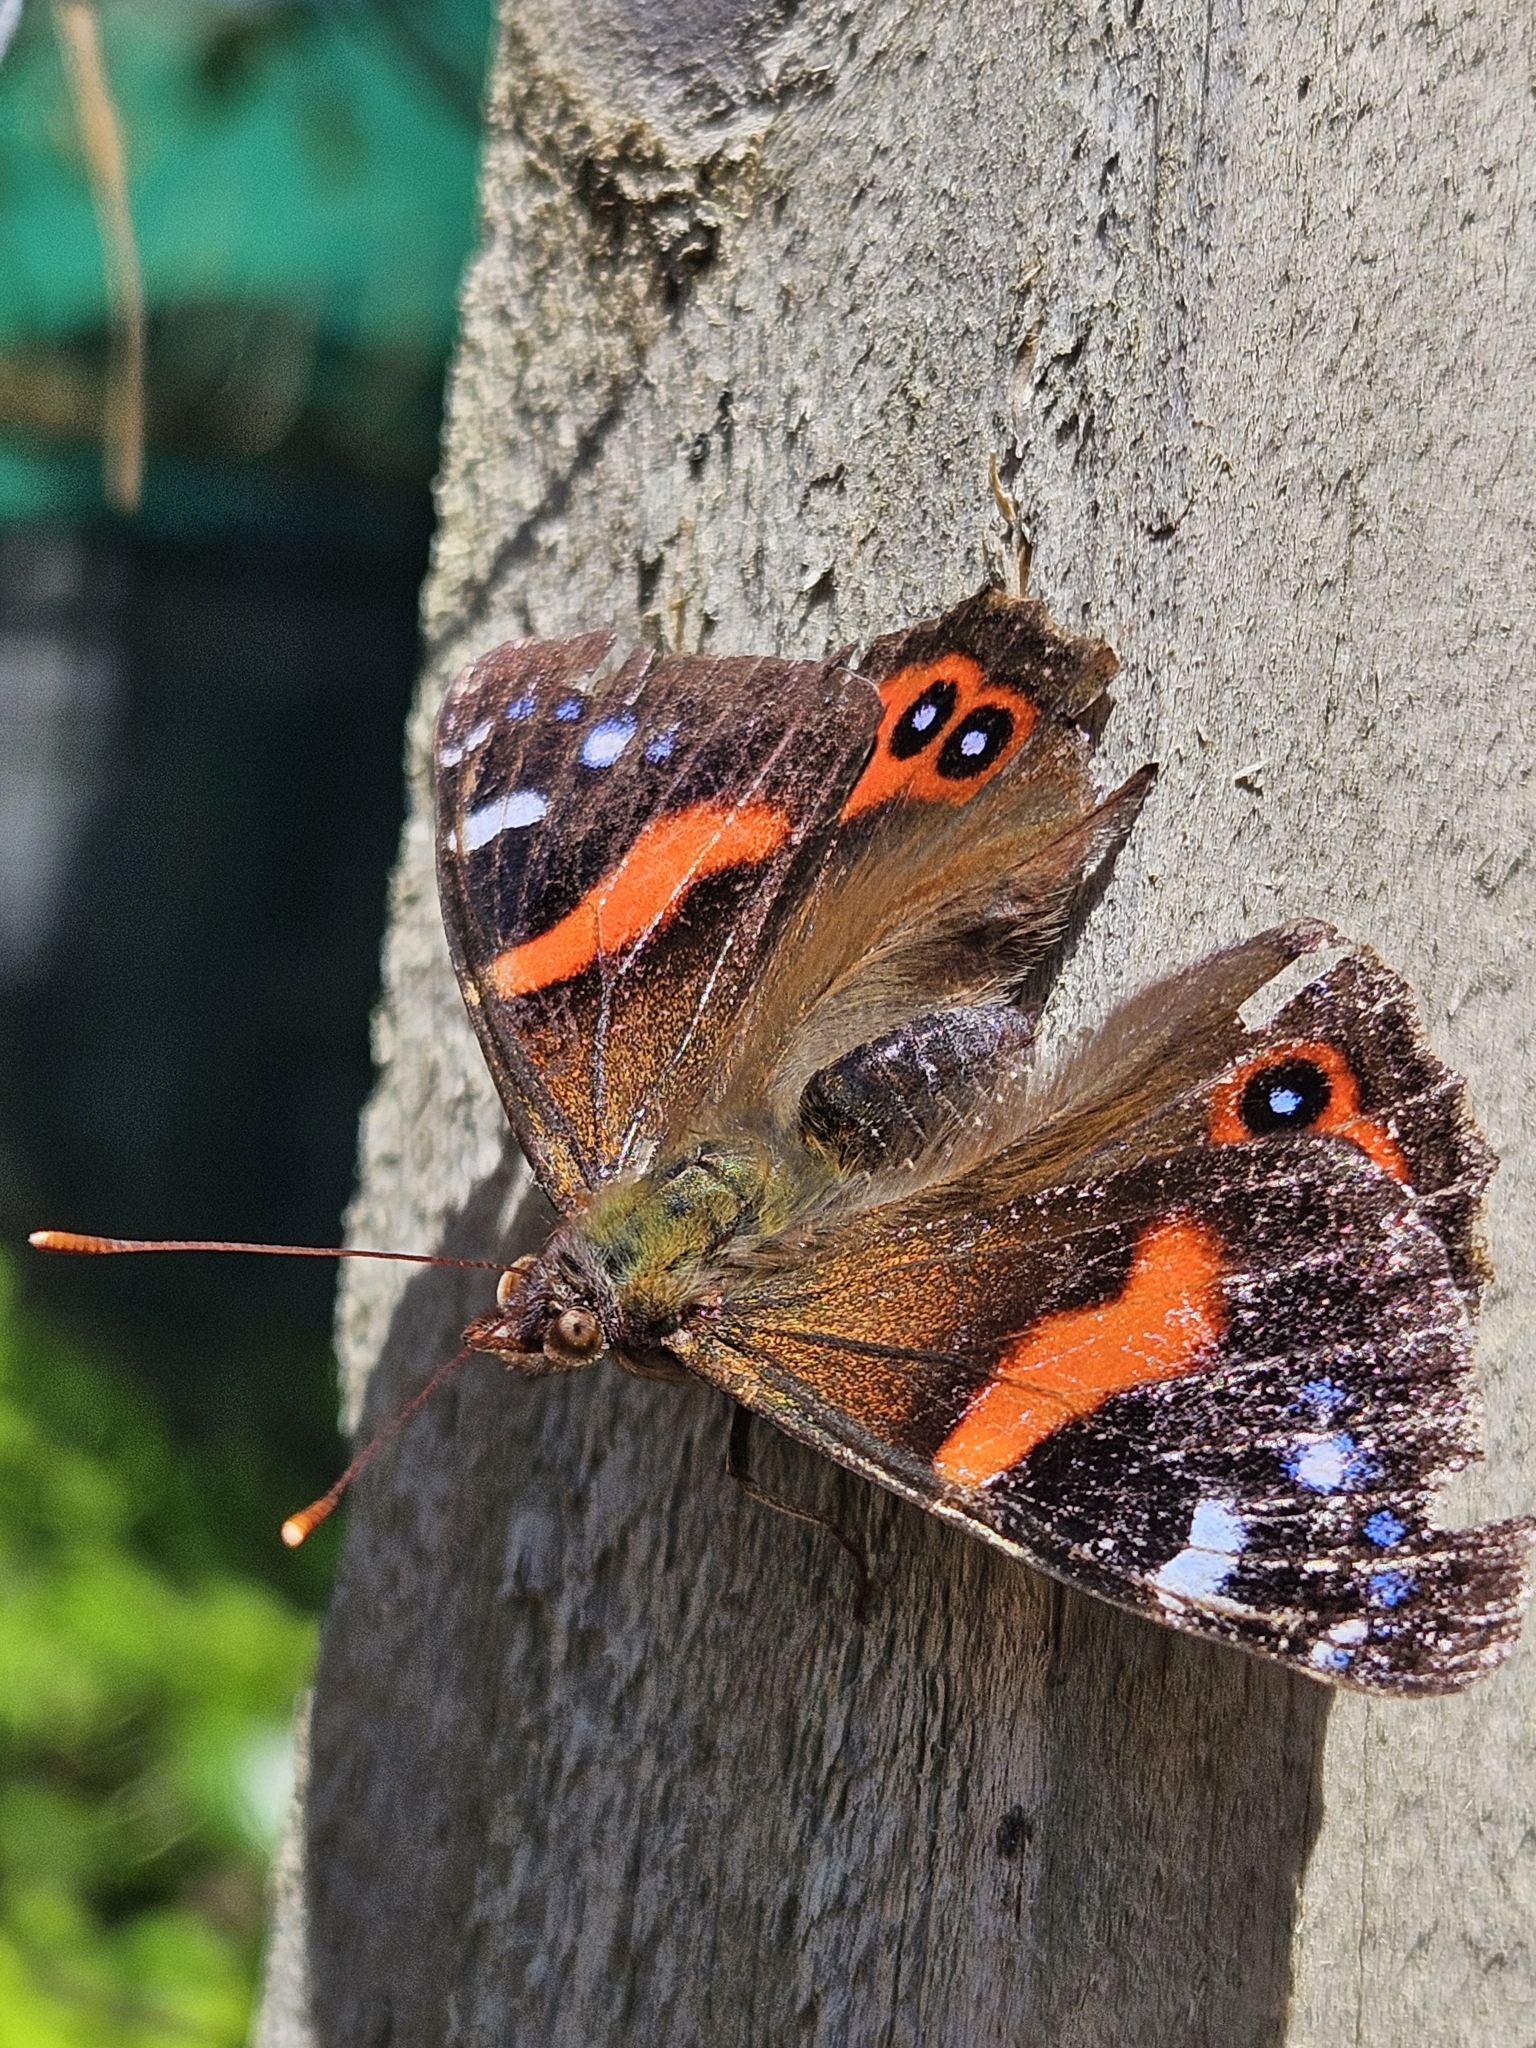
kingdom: Animalia
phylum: Arthropoda
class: Insecta
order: Lepidoptera
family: Nymphalidae
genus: Vanessa
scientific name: Vanessa gonerilla
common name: New zealand red admiral
